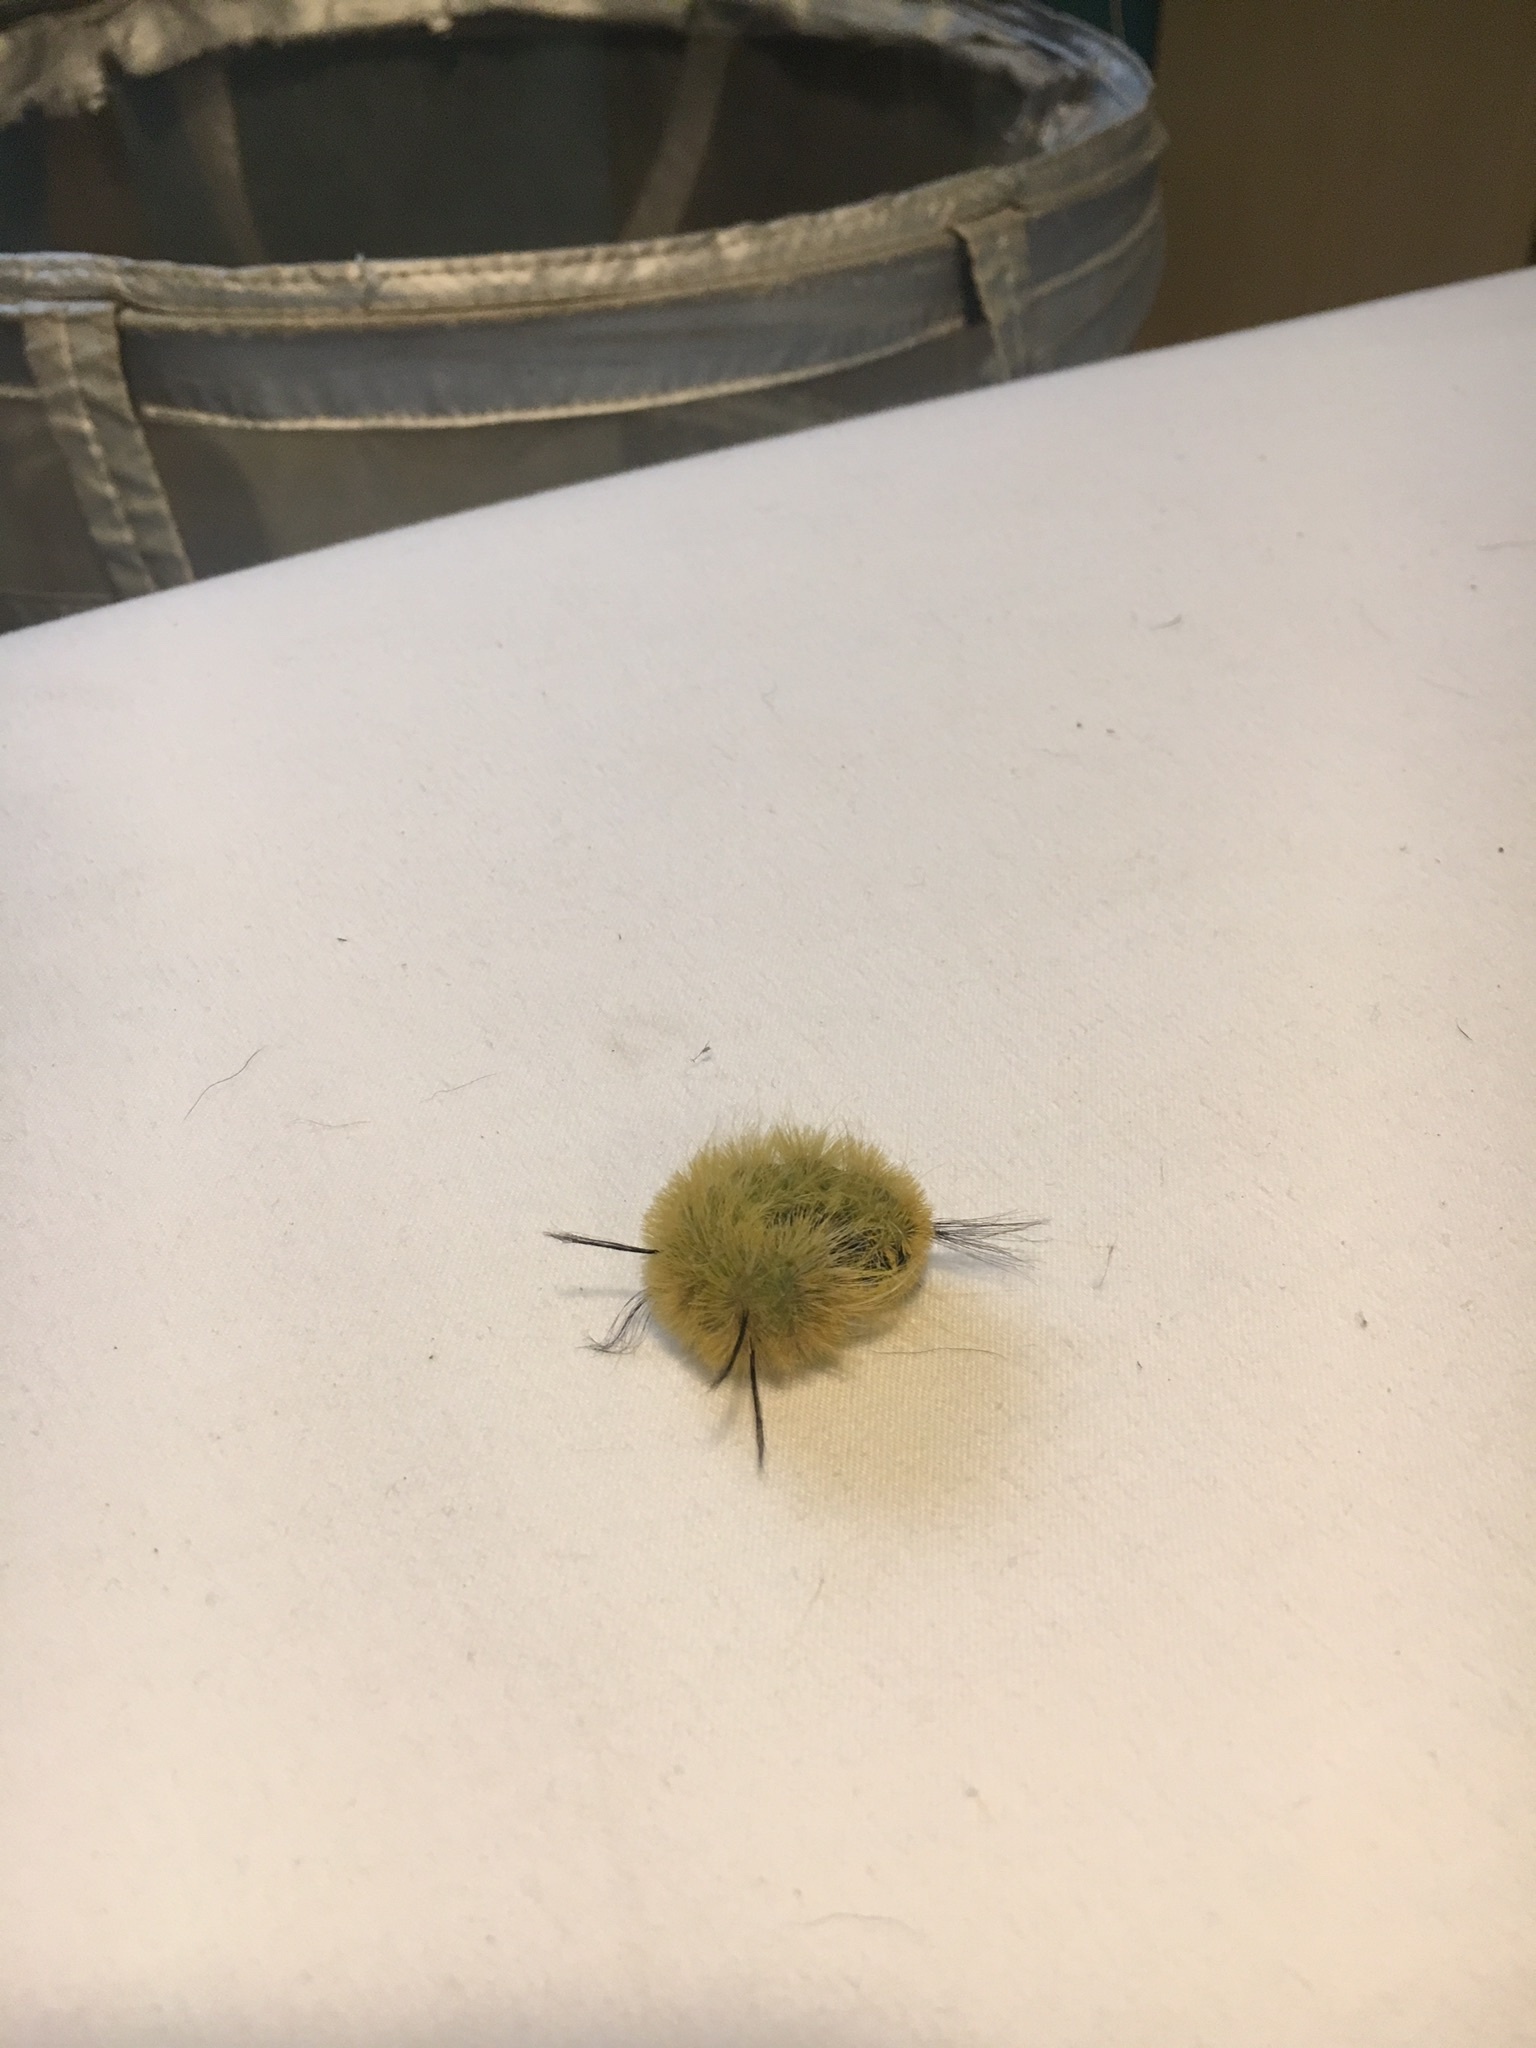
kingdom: Animalia
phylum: Arthropoda
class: Insecta
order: Lepidoptera
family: Noctuidae
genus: Acronicta
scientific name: Acronicta americana
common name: American dagger
